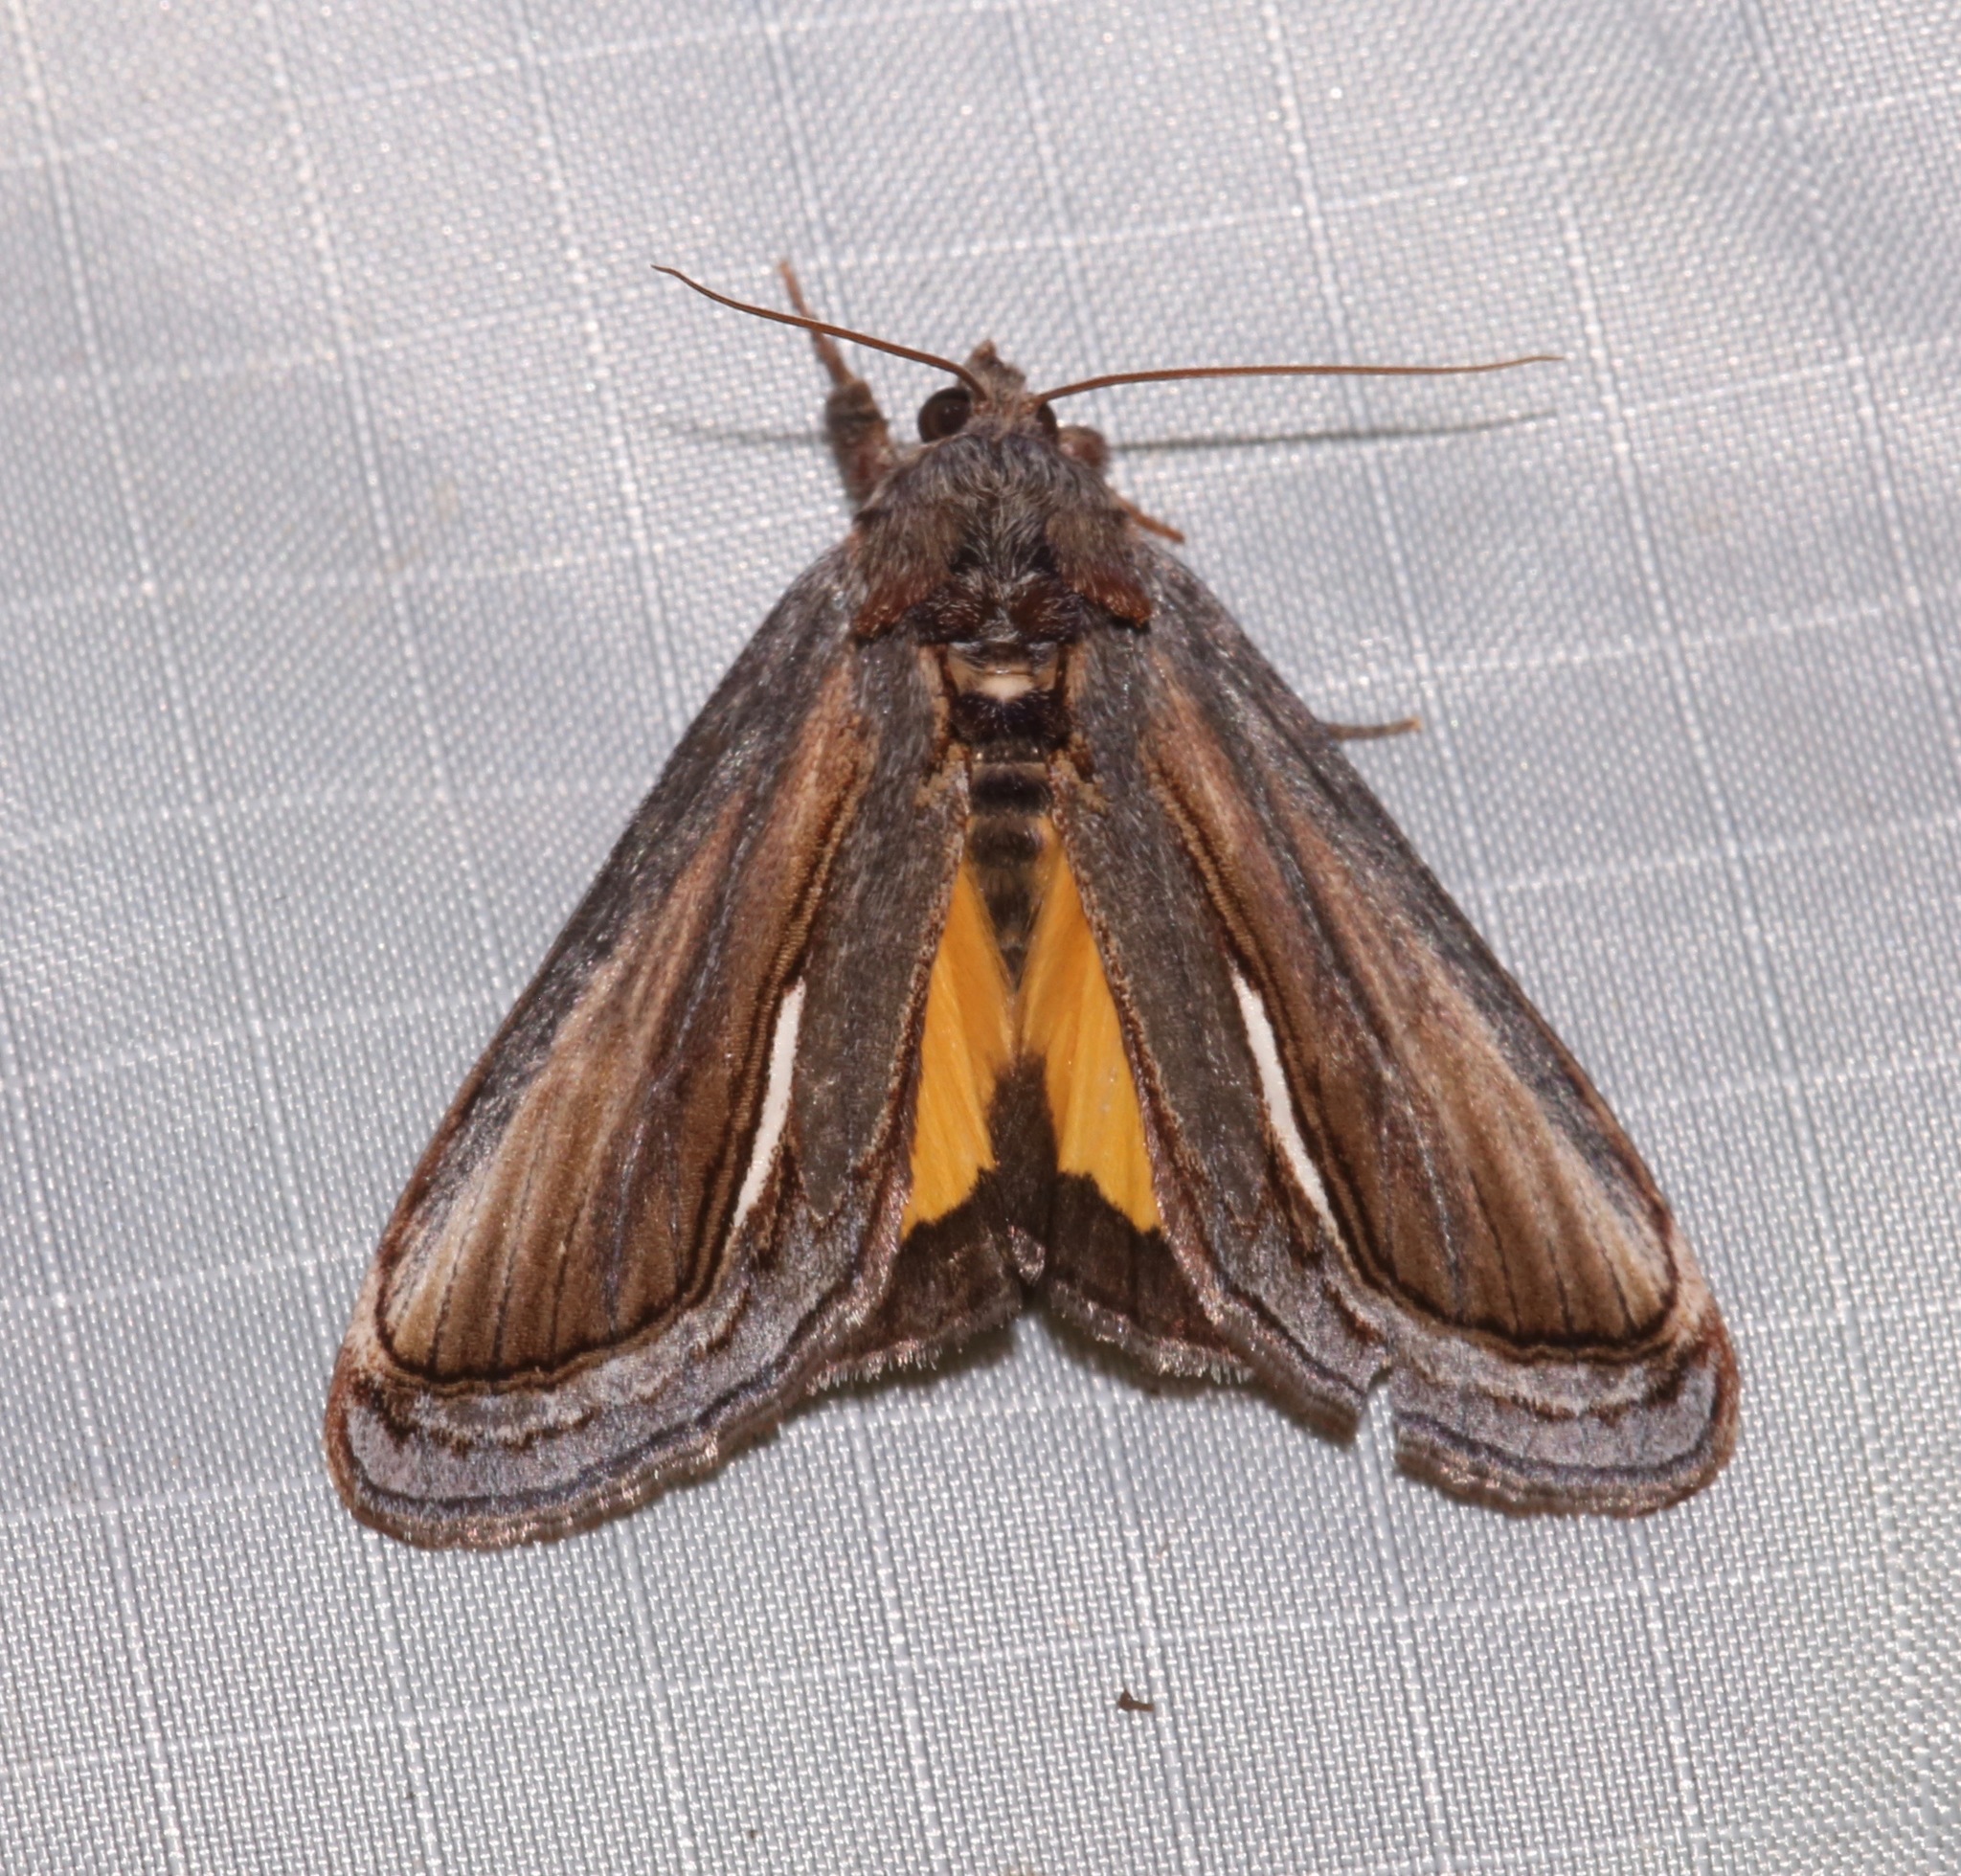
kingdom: Animalia
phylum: Arthropoda
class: Insecta
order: Lepidoptera
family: Noctuidae
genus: Gerrodes
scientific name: Gerrodes minatea
